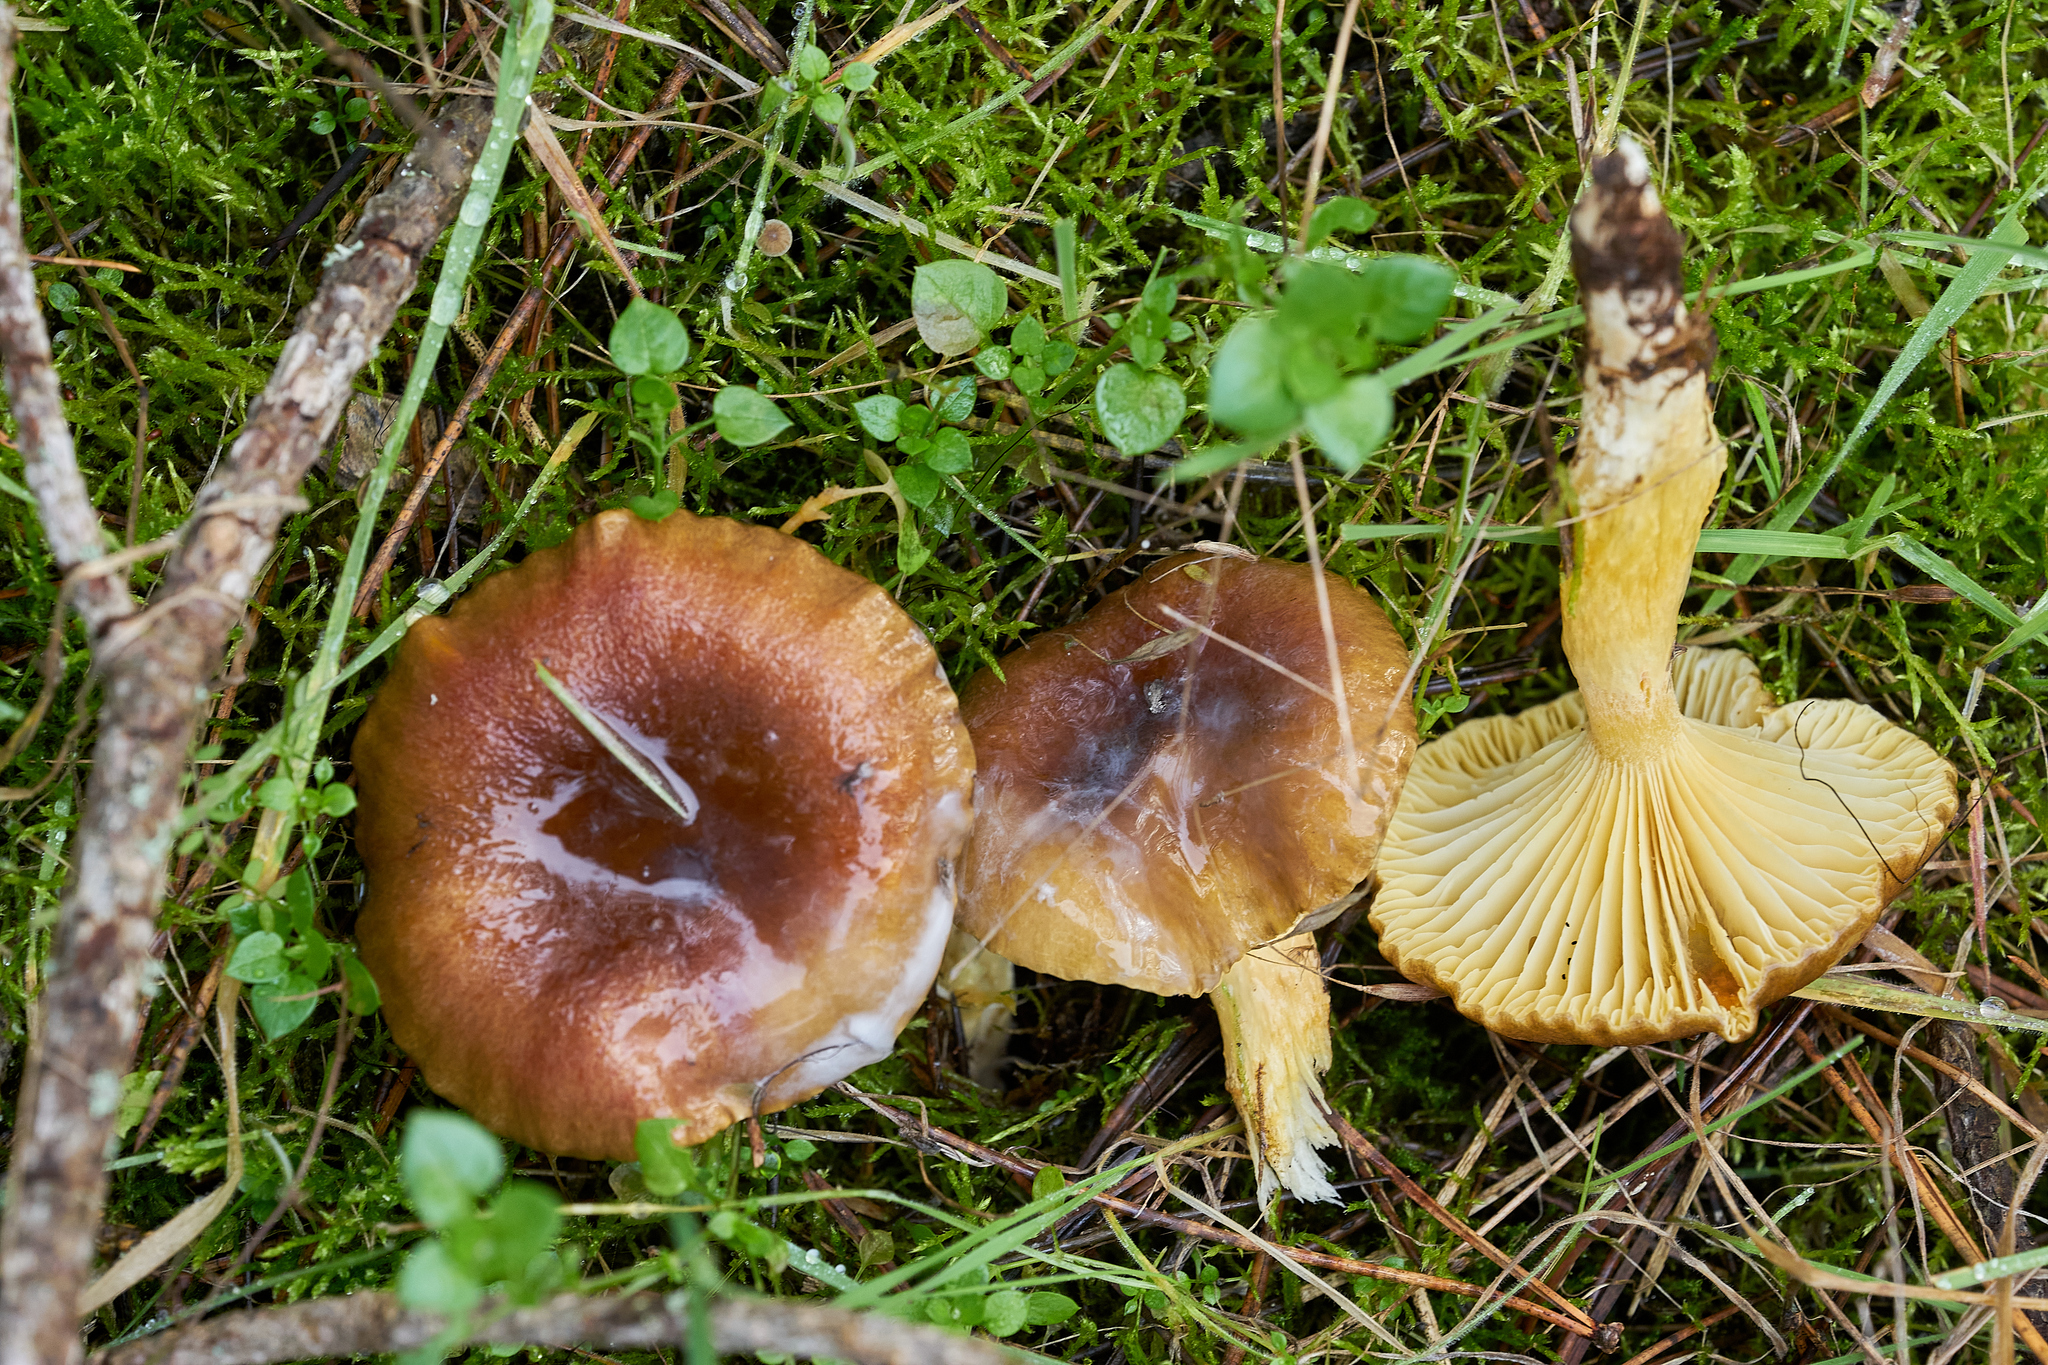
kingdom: Fungi
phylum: Basidiomycota
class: Agaricomycetes
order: Agaricales
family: Hygrophoraceae
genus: Hygrophorus
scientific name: Hygrophorus hypothejus
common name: Herald of winter
